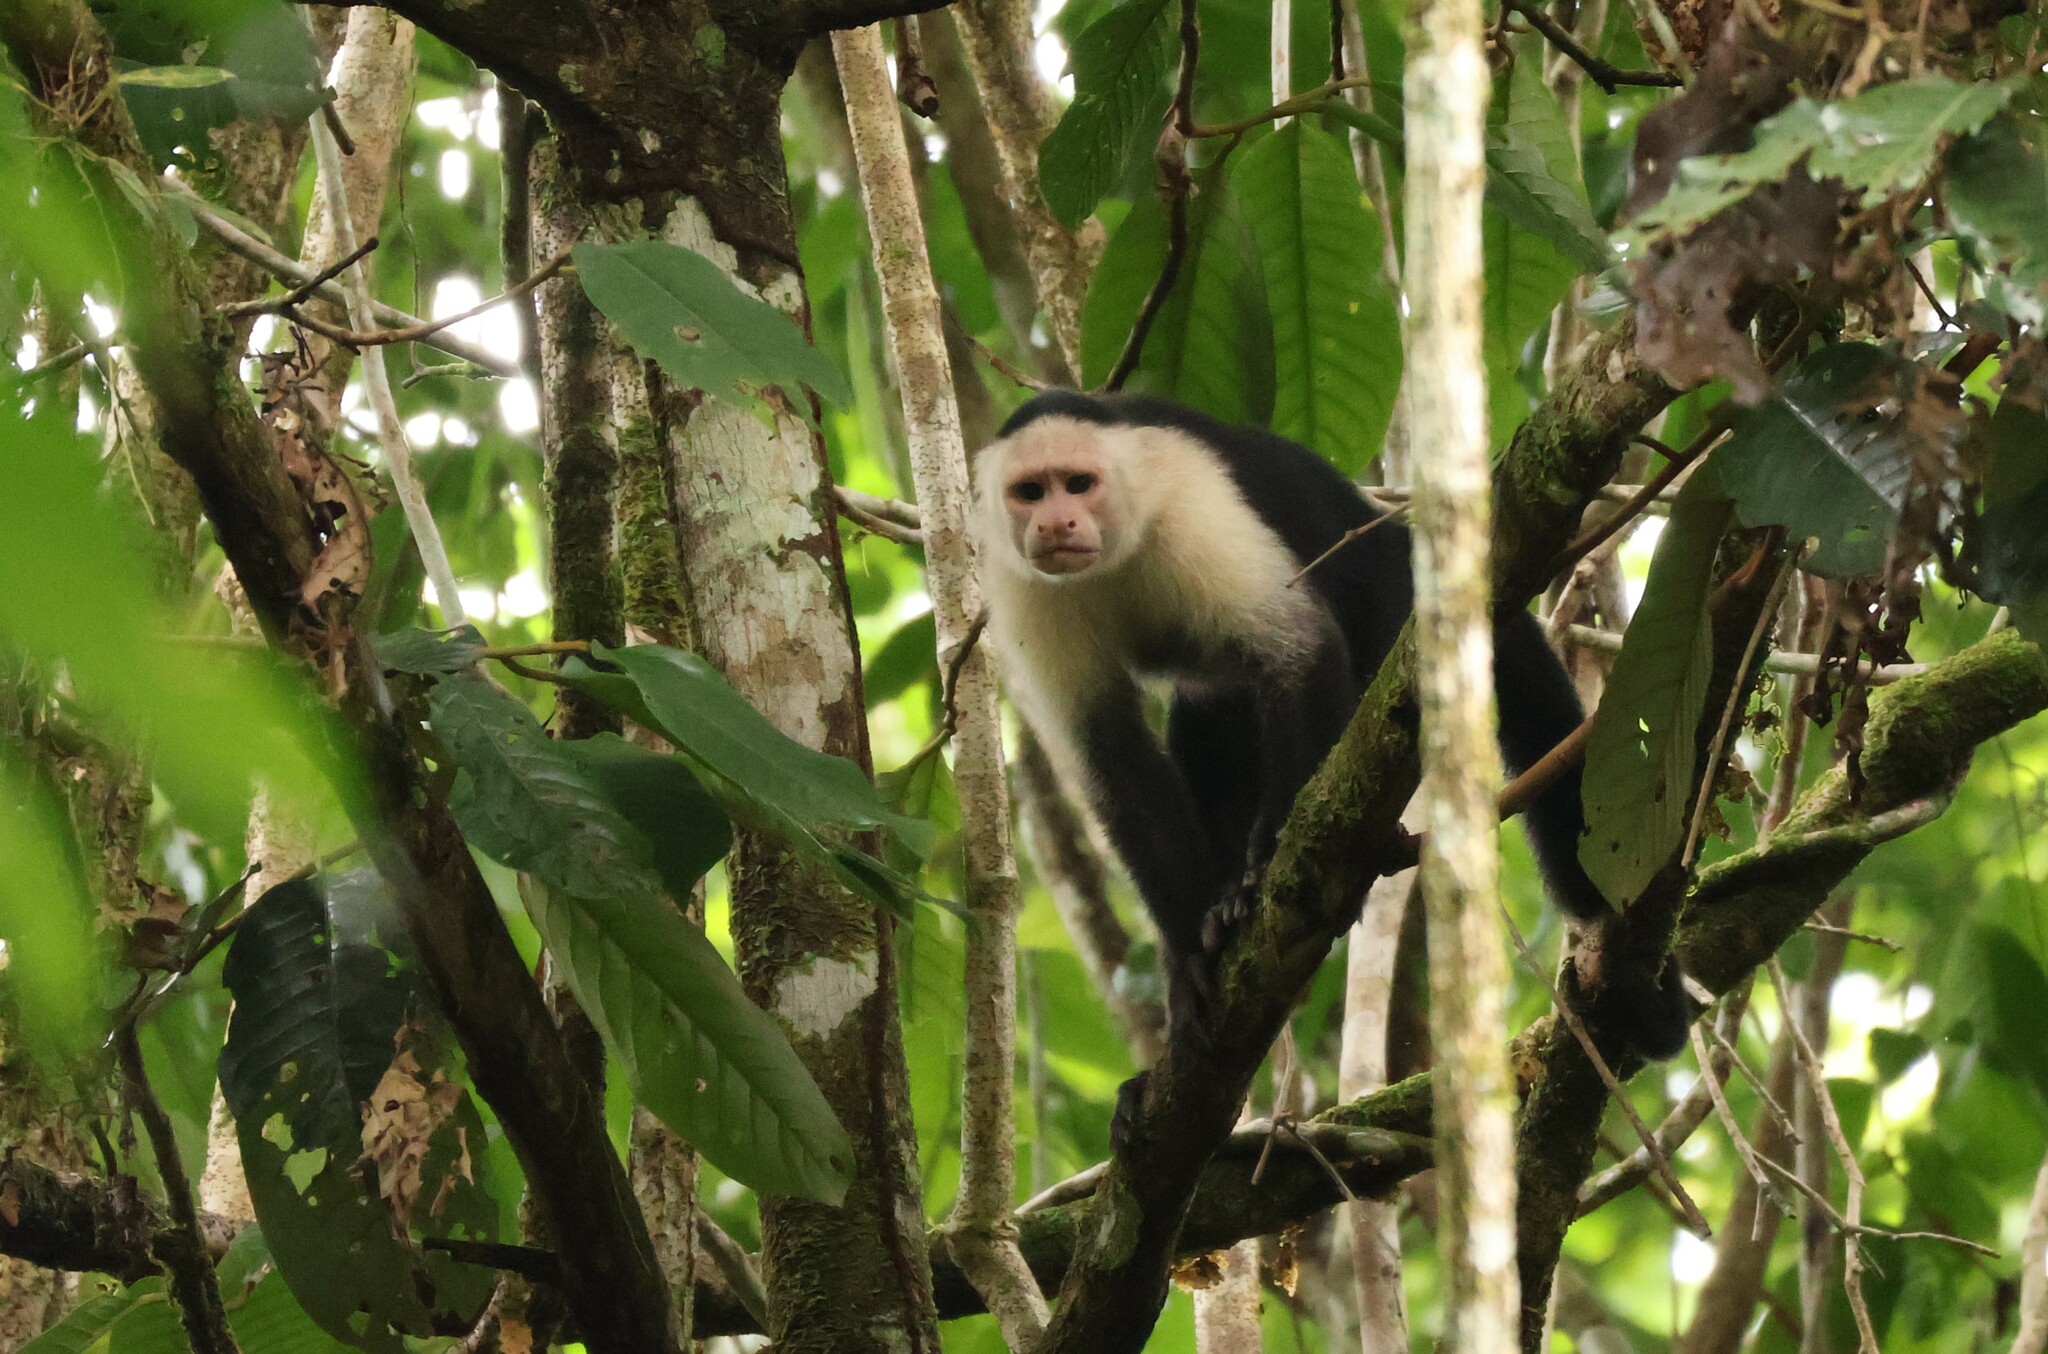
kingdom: Animalia
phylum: Chordata
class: Mammalia
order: Primates
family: Cebidae
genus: Cebus
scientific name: Cebus imitator
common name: Panamanian white-faced capuchin
